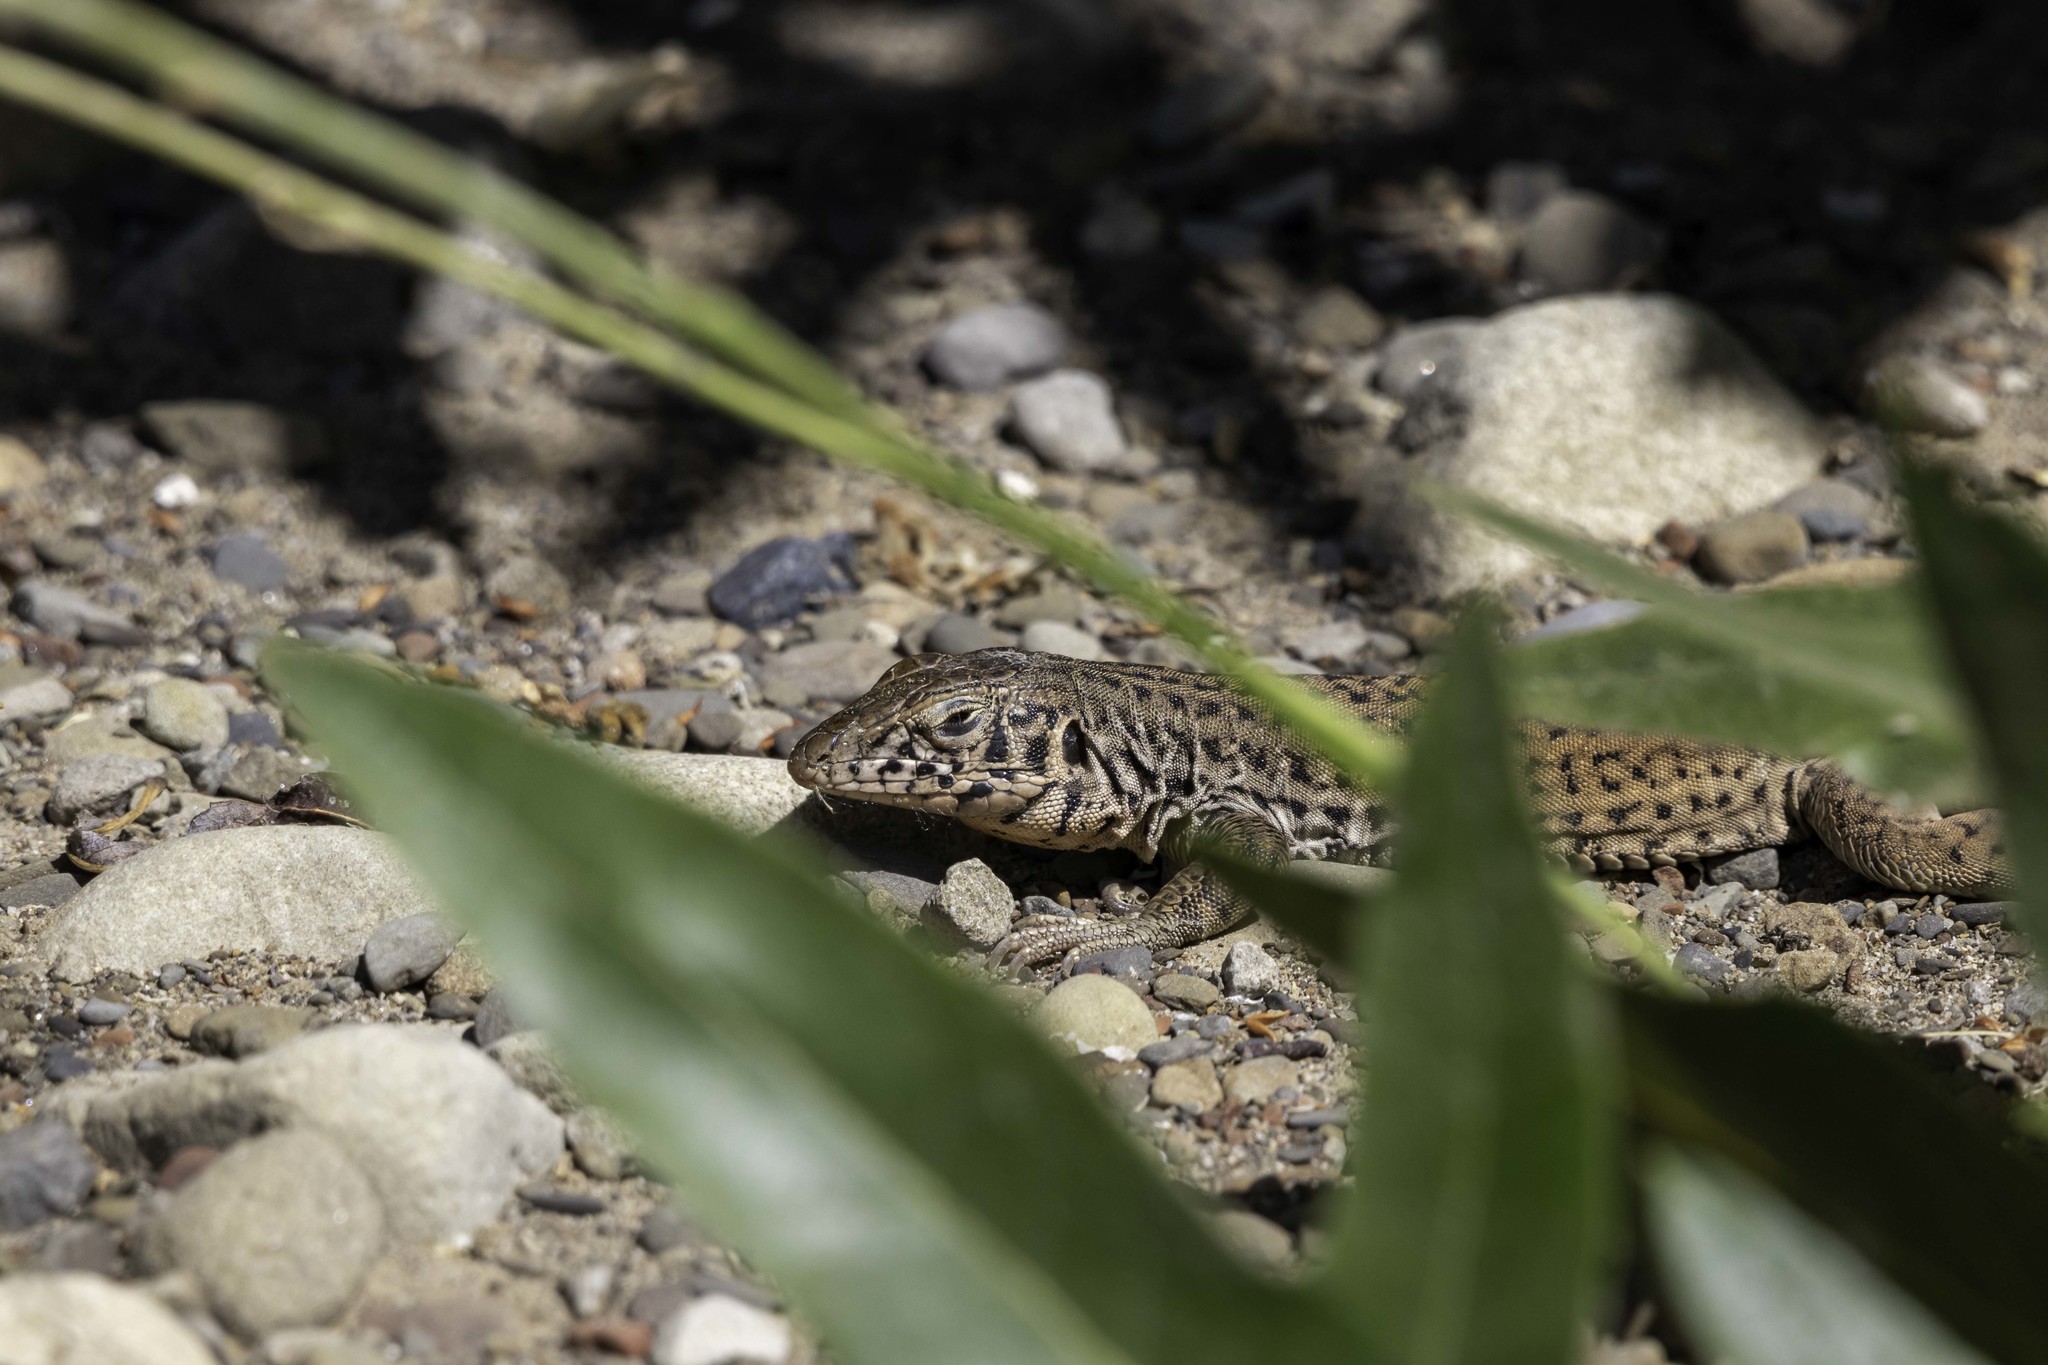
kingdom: Animalia
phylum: Chordata
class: Squamata
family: Teiidae
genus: Aspidoscelis
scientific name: Aspidoscelis tigris
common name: Tiger whiptail
